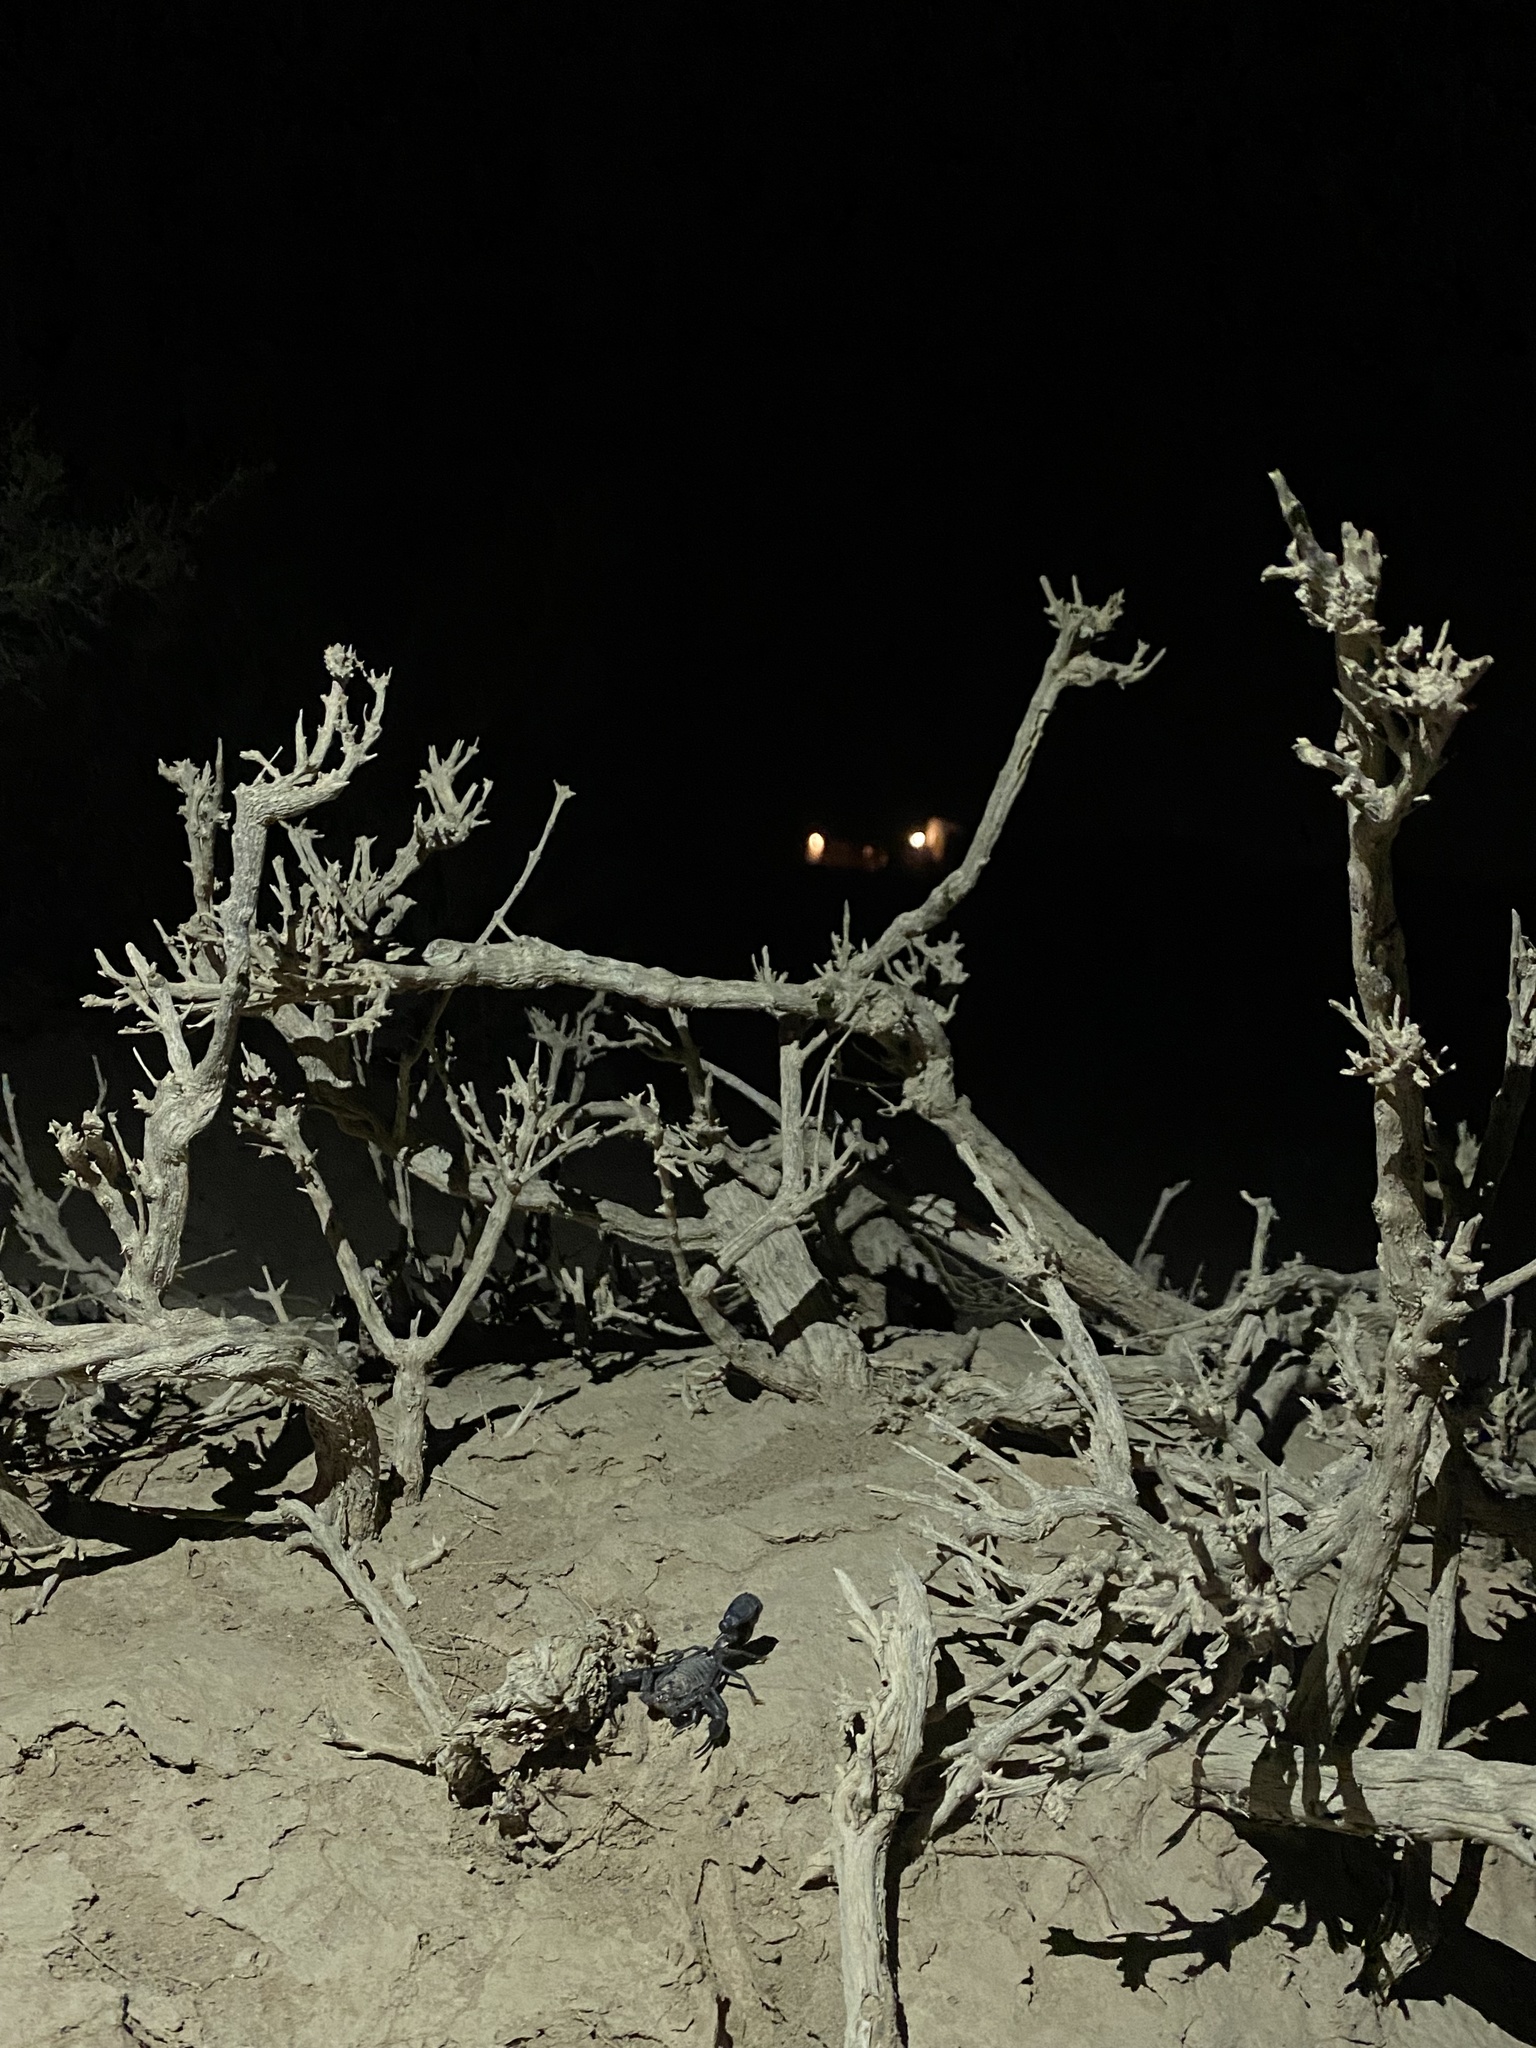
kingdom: Animalia
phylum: Arthropoda
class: Arachnida
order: Scorpiones
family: Buthidae
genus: Androctonus
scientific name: Androctonus crassicauda
